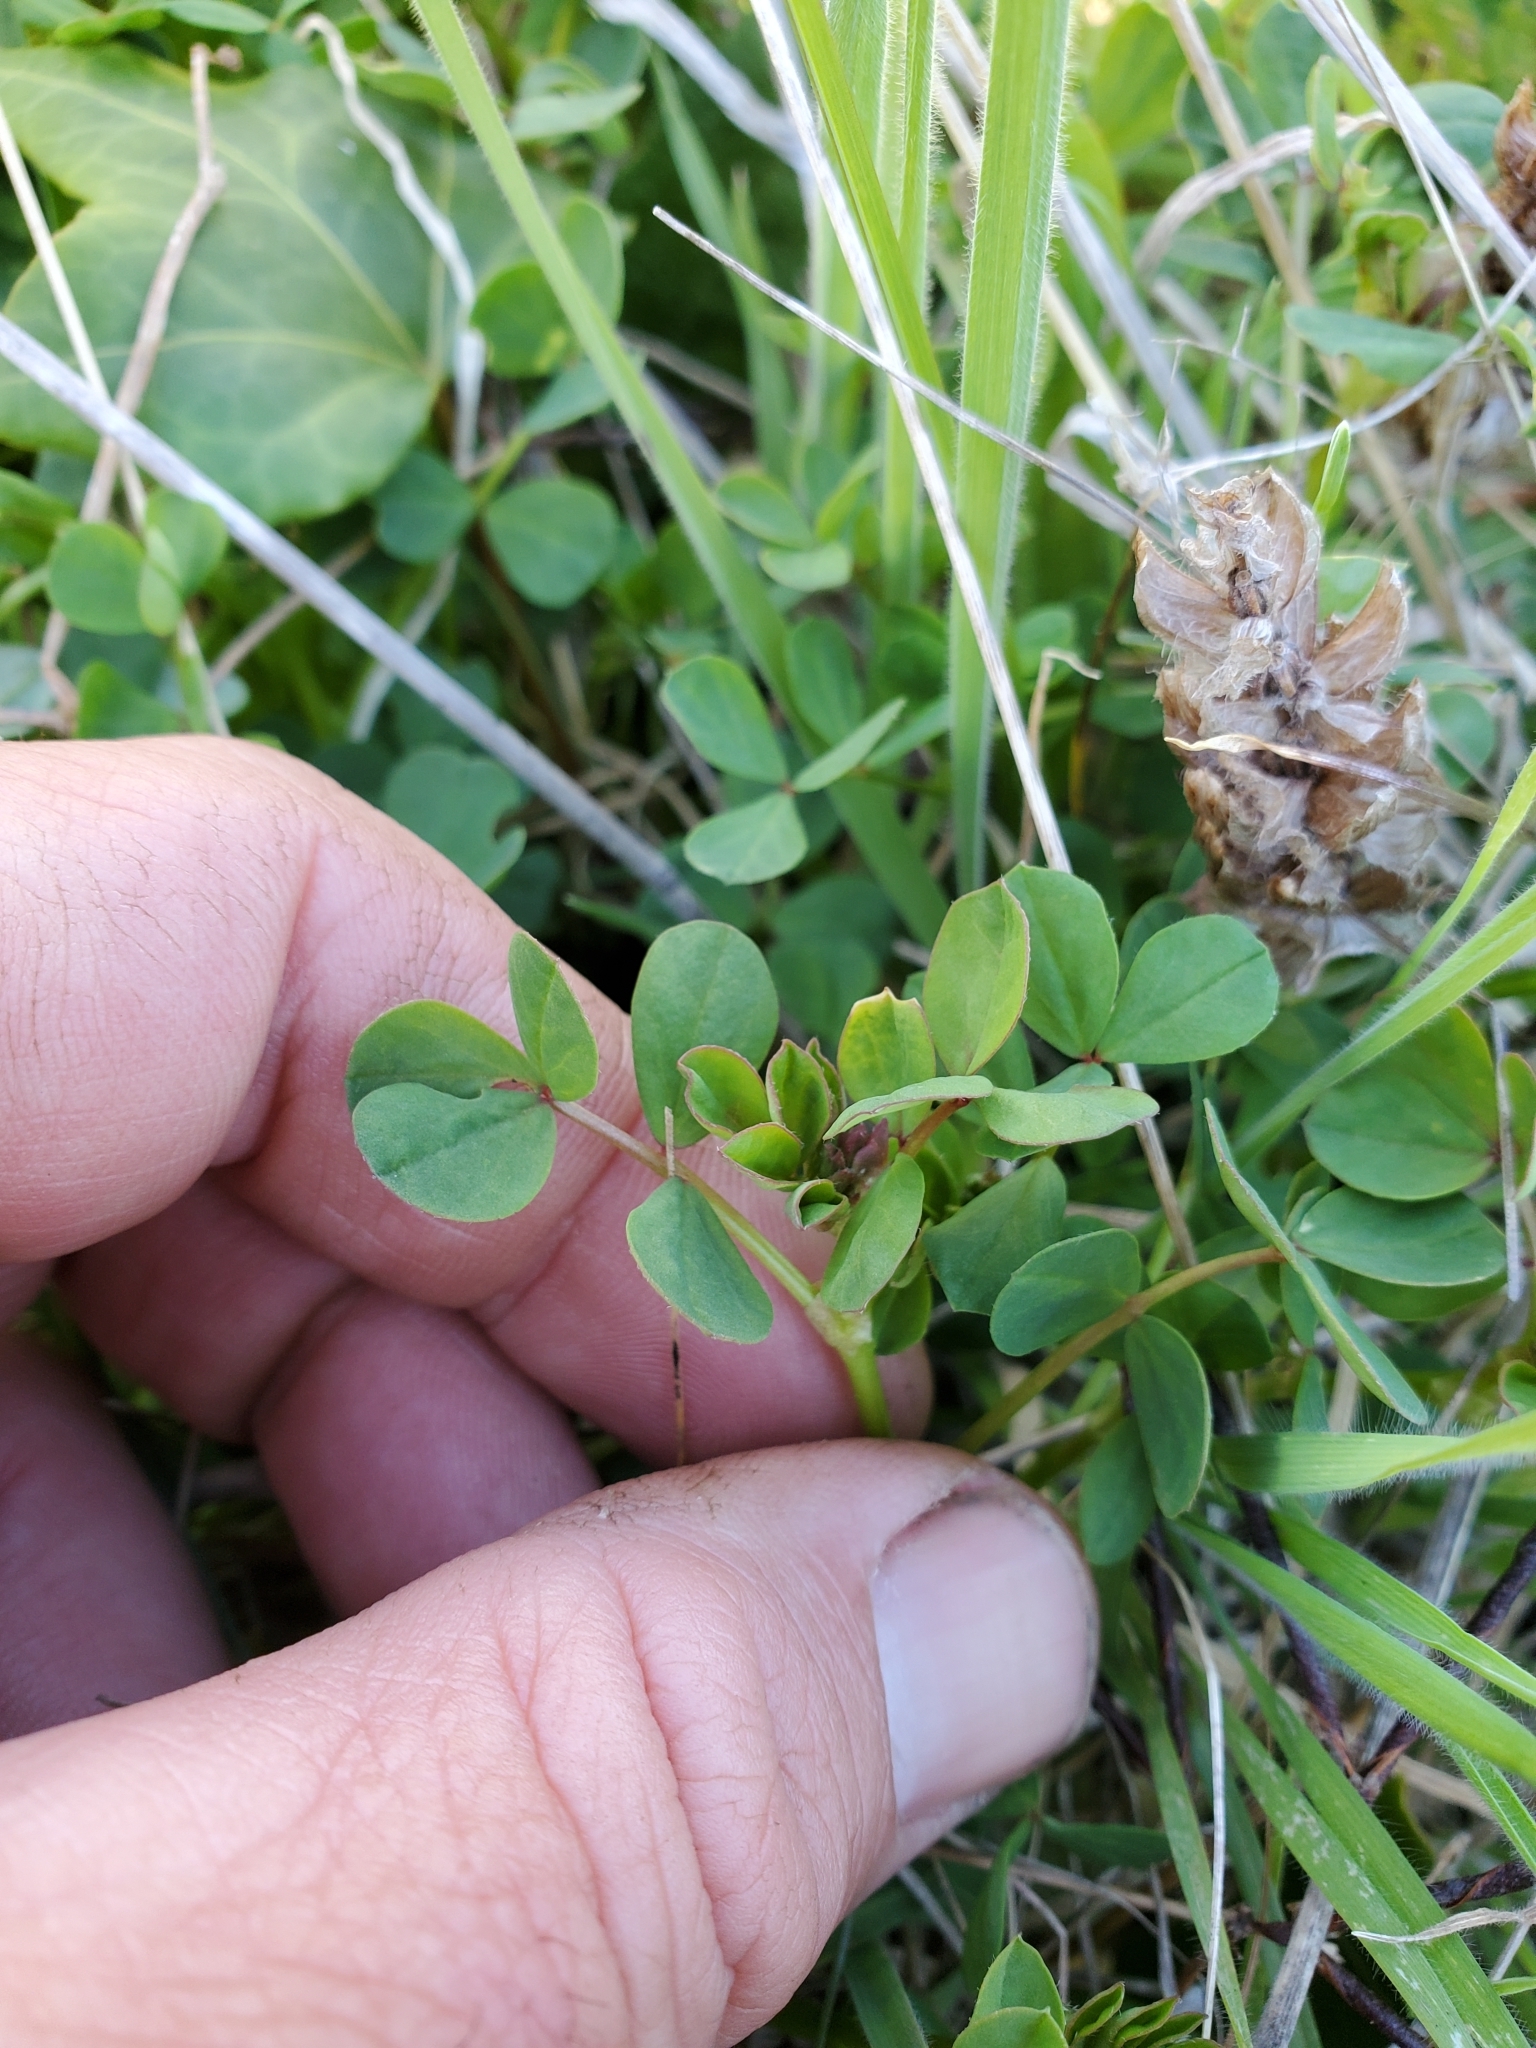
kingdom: Plantae
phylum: Tracheophyta
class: Magnoliopsida
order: Fabales
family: Fabaceae
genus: Hosackia
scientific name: Hosackia gracilis
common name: Seaside bird's-foot lotus
